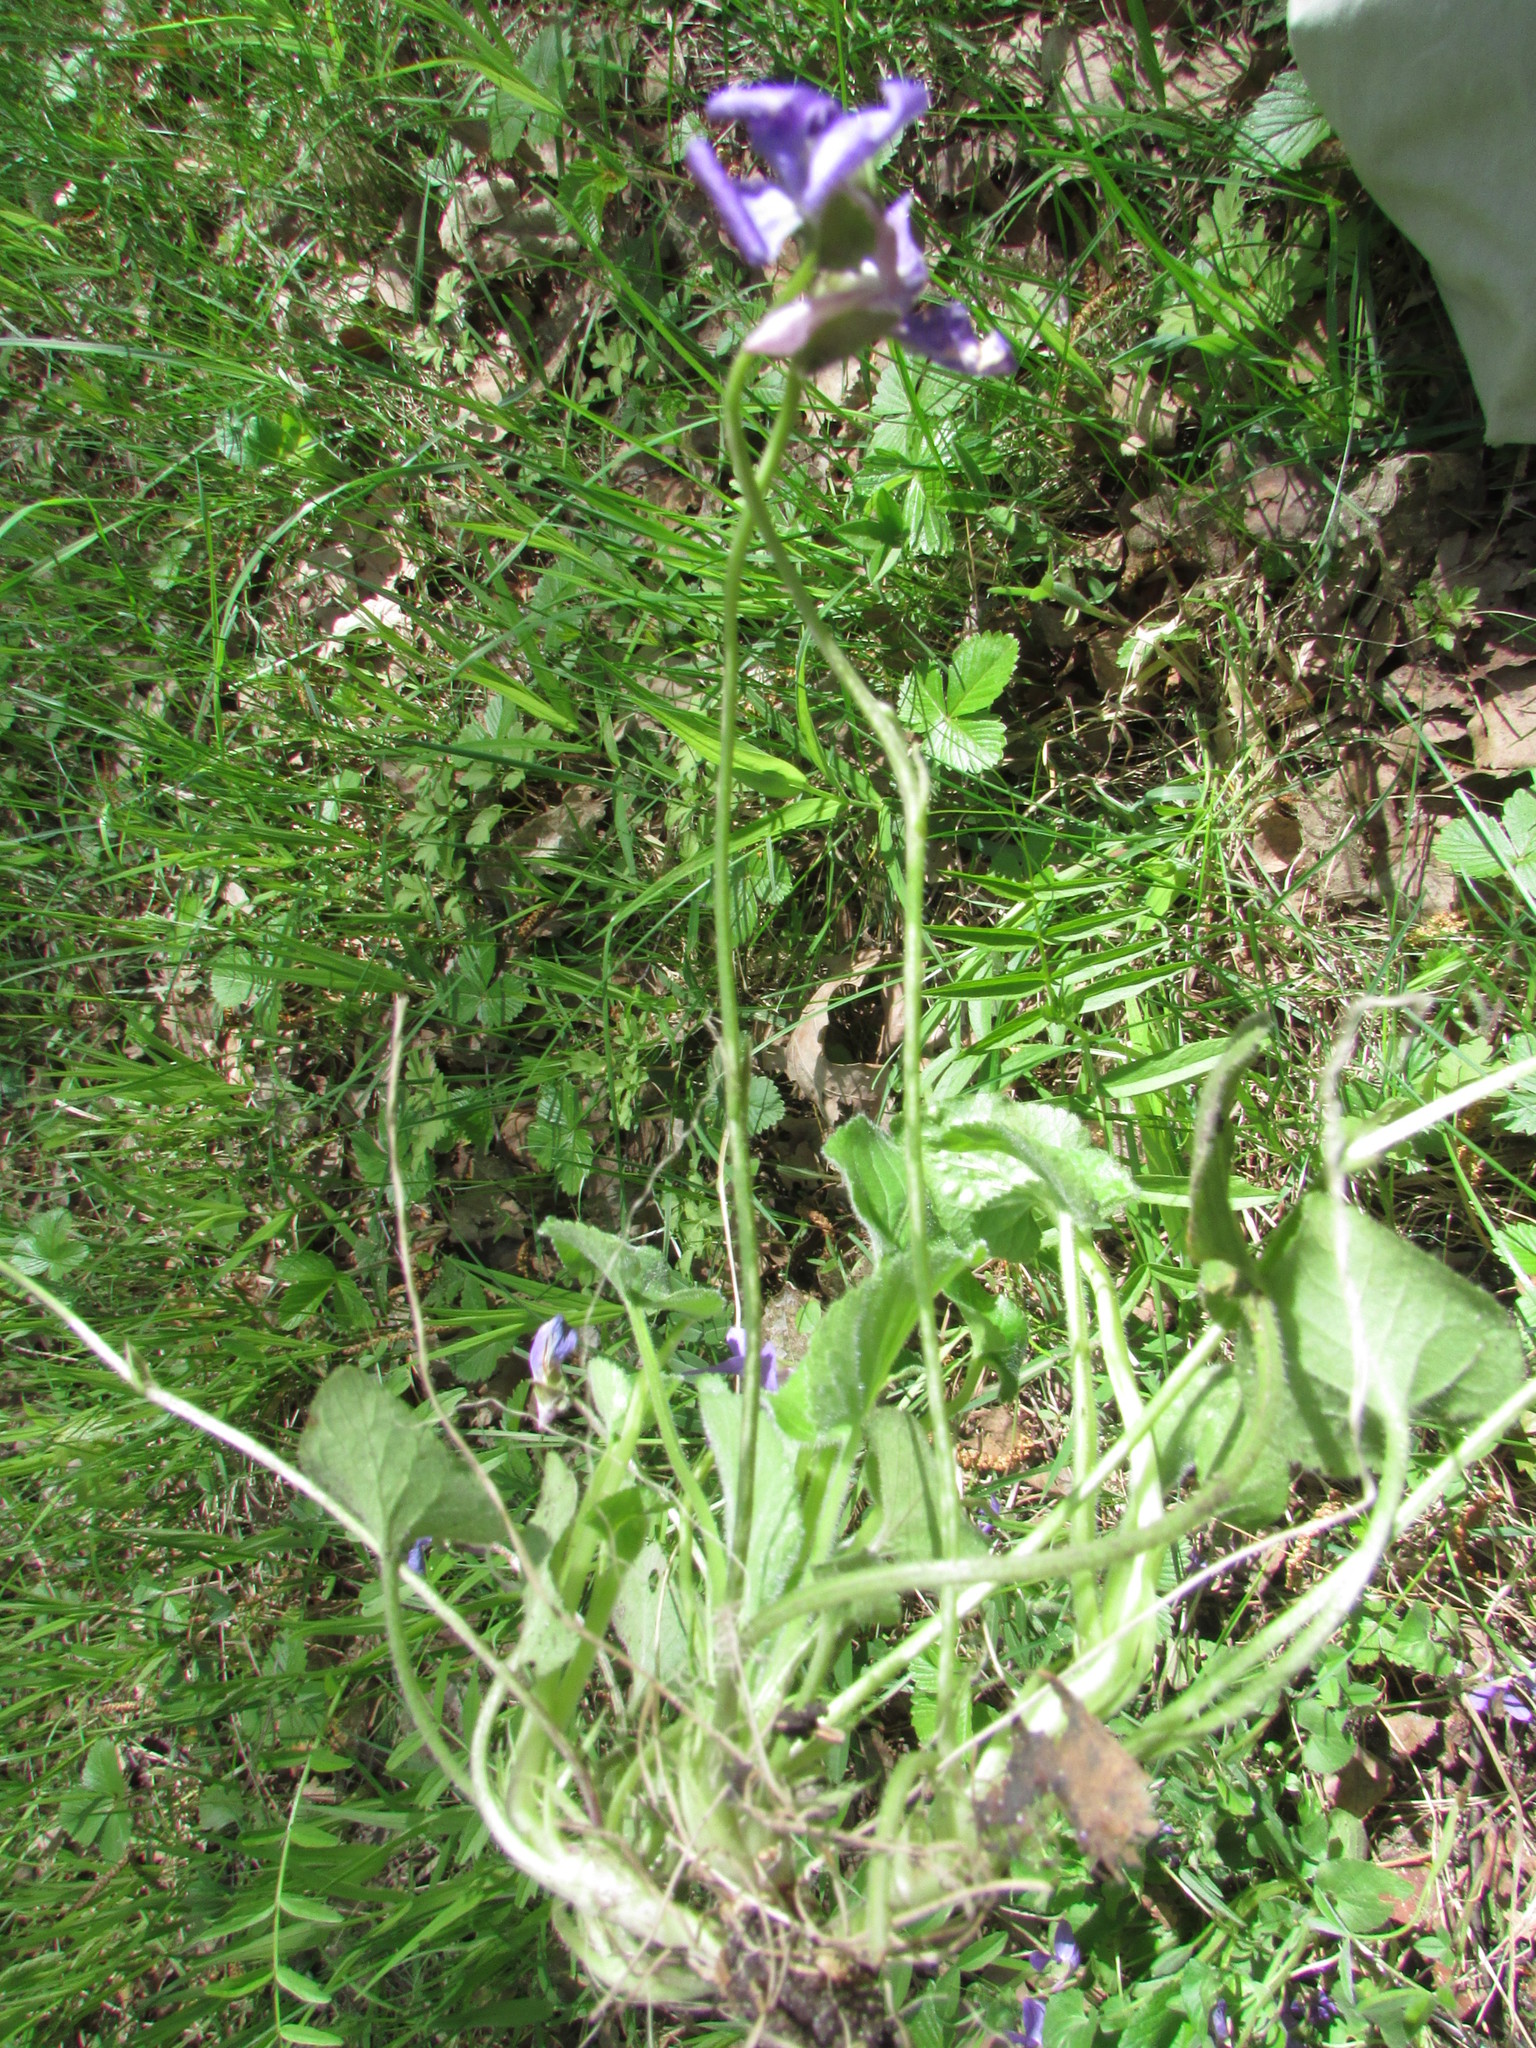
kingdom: Plantae
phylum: Tracheophyta
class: Magnoliopsida
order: Malpighiales
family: Violaceae
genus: Viola
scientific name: Viola hirta
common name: Hairy violet
